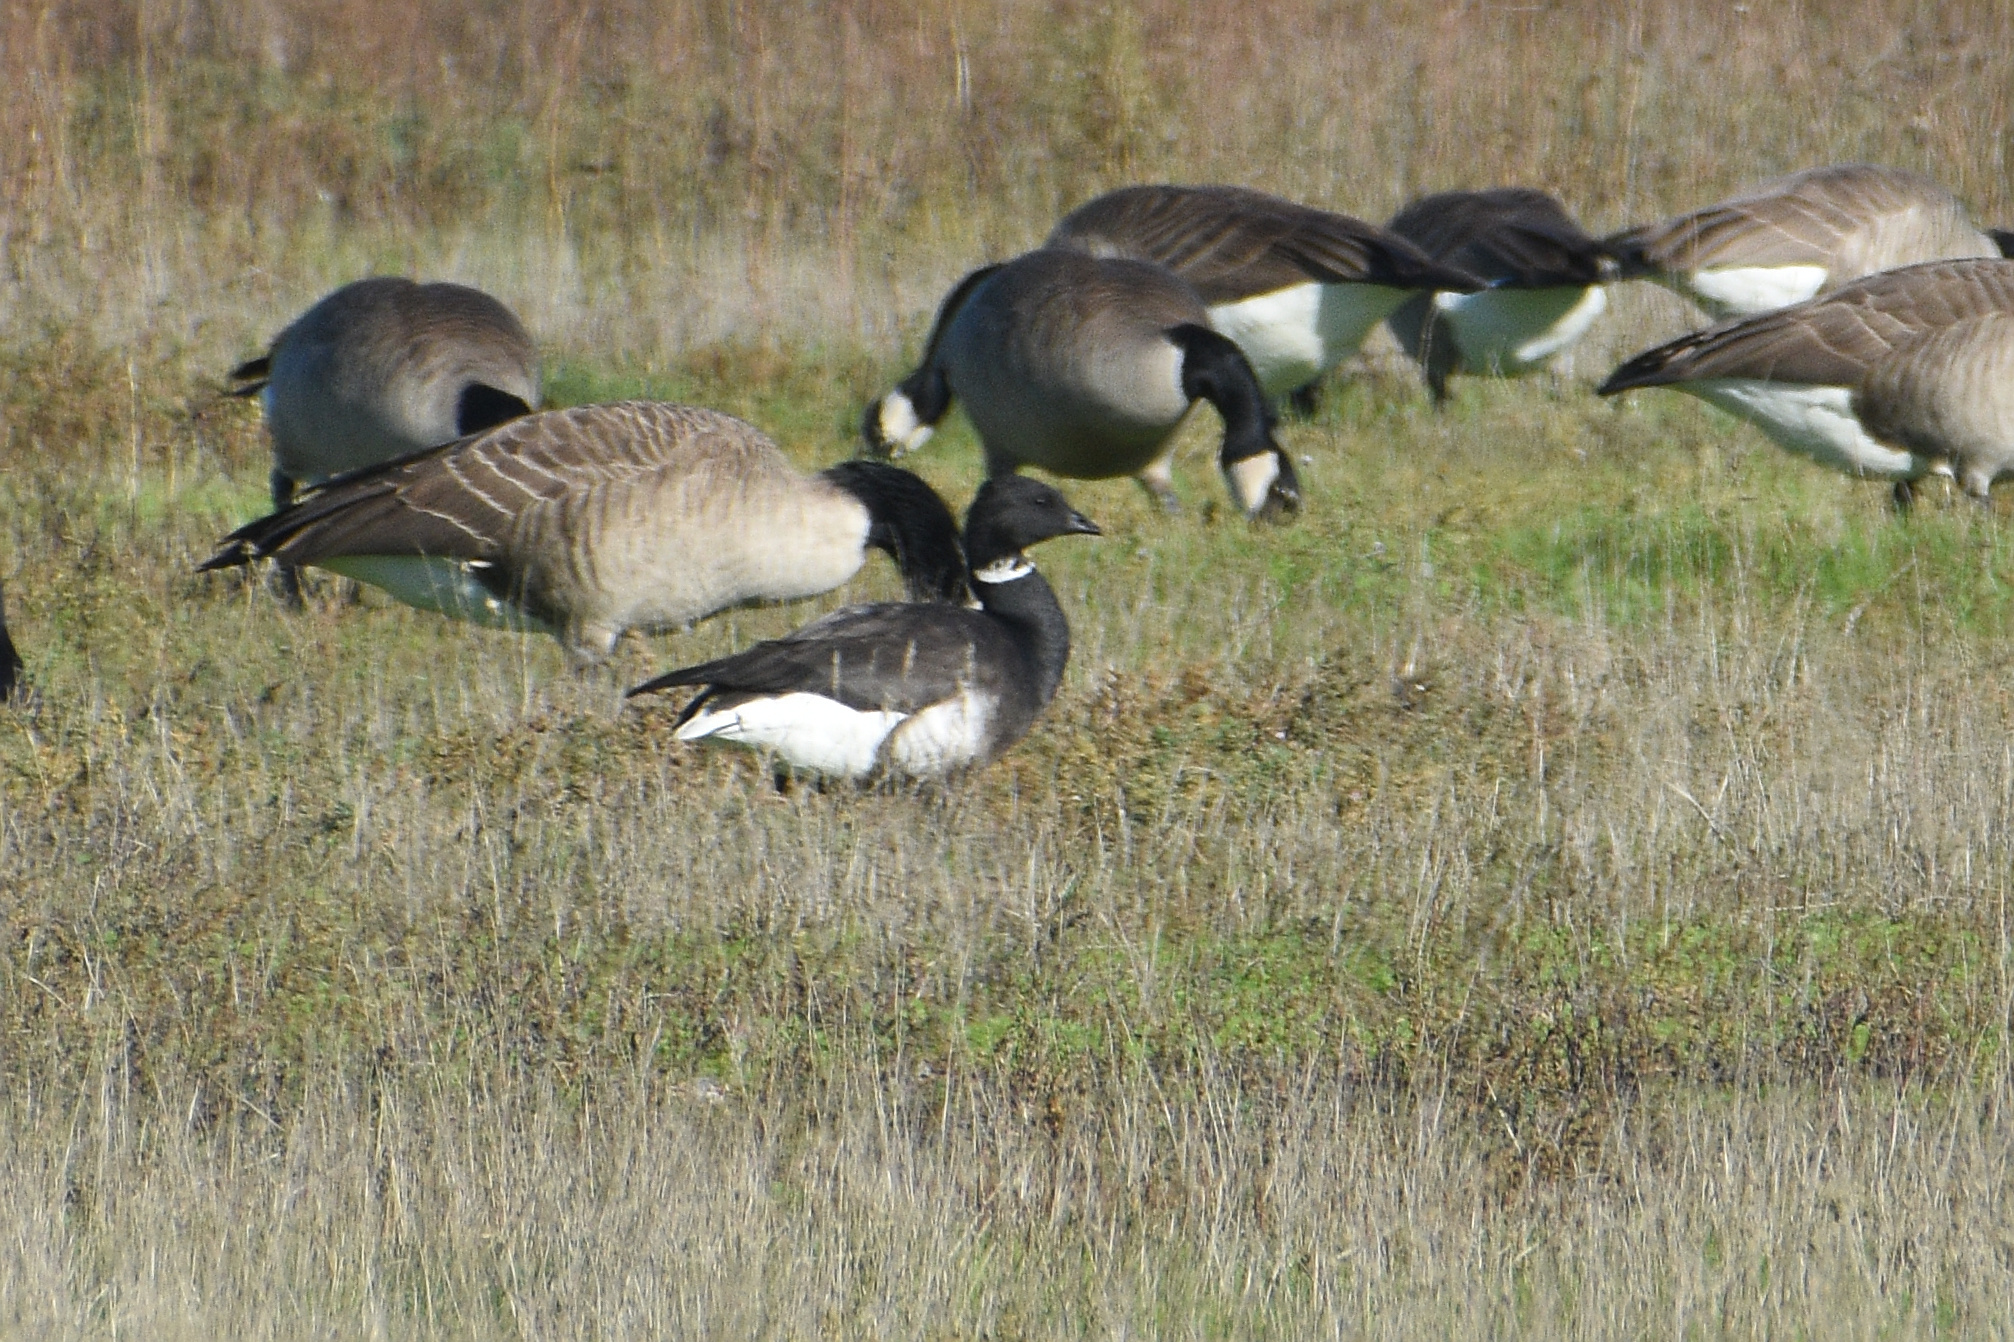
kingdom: Animalia
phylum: Chordata
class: Aves
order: Anseriformes
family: Anatidae
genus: Branta
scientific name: Branta bernicla
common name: Brant goose
